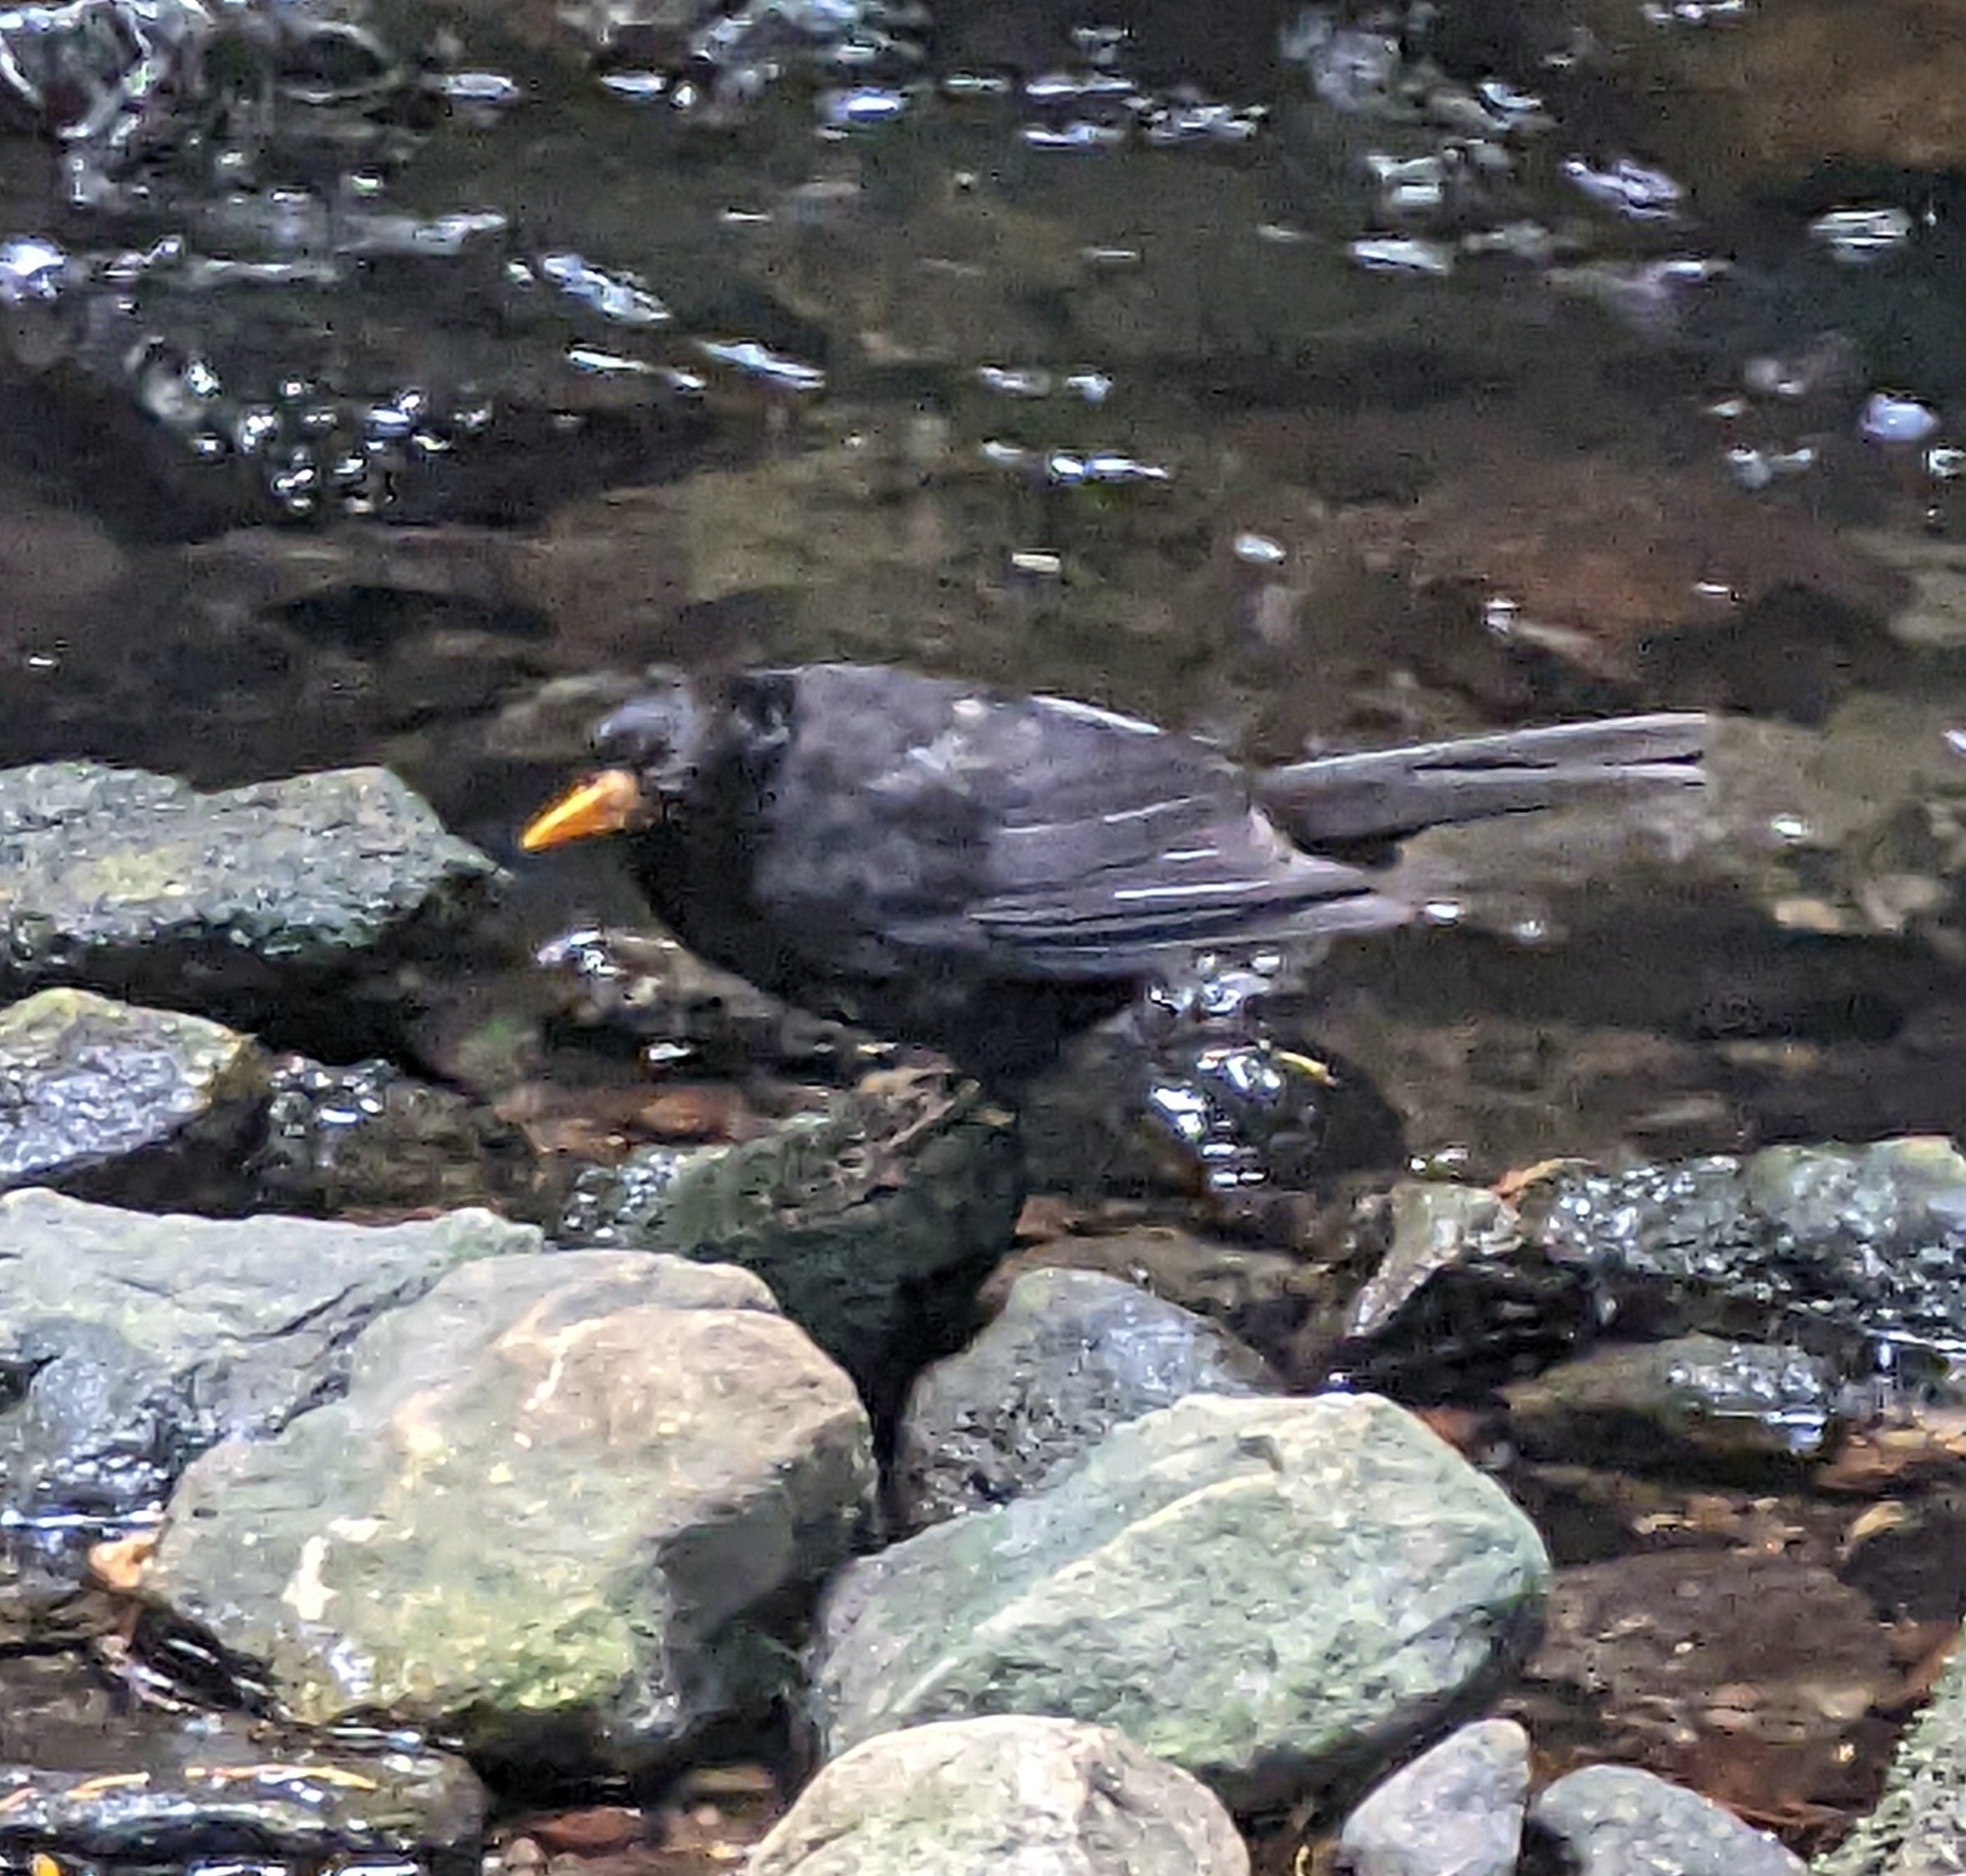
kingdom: Animalia
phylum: Chordata
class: Aves
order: Passeriformes
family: Turdidae
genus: Turdus
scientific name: Turdus merula
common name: Common blackbird
